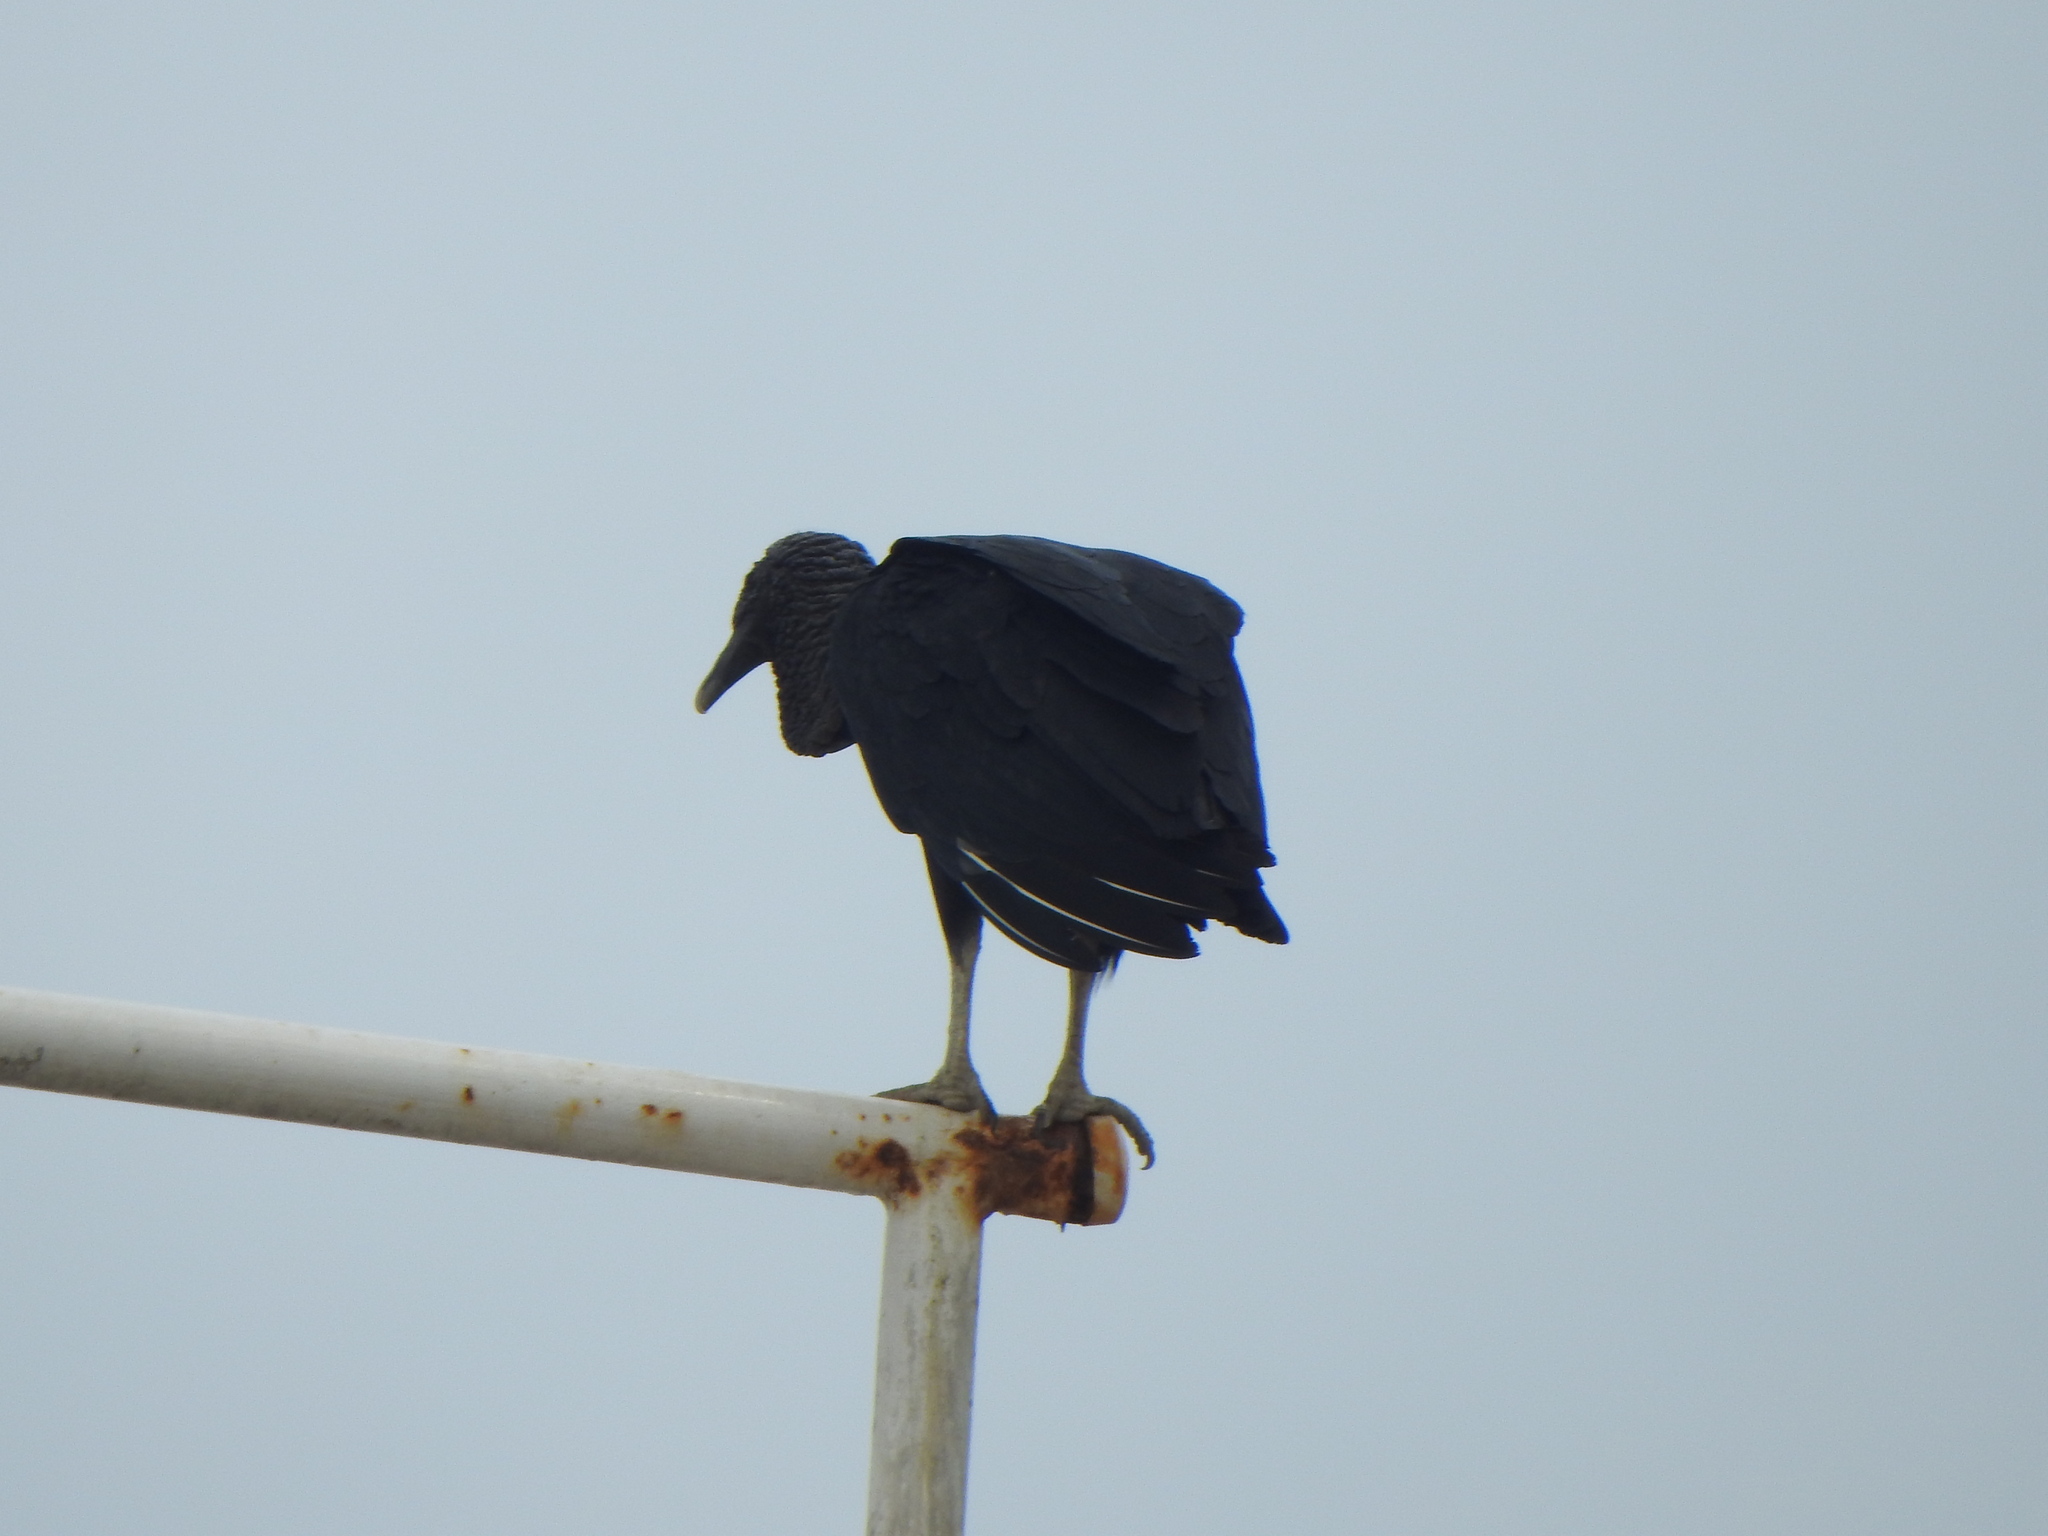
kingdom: Animalia
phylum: Chordata
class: Aves
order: Accipitriformes
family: Cathartidae
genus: Coragyps
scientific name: Coragyps atratus
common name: Black vulture
